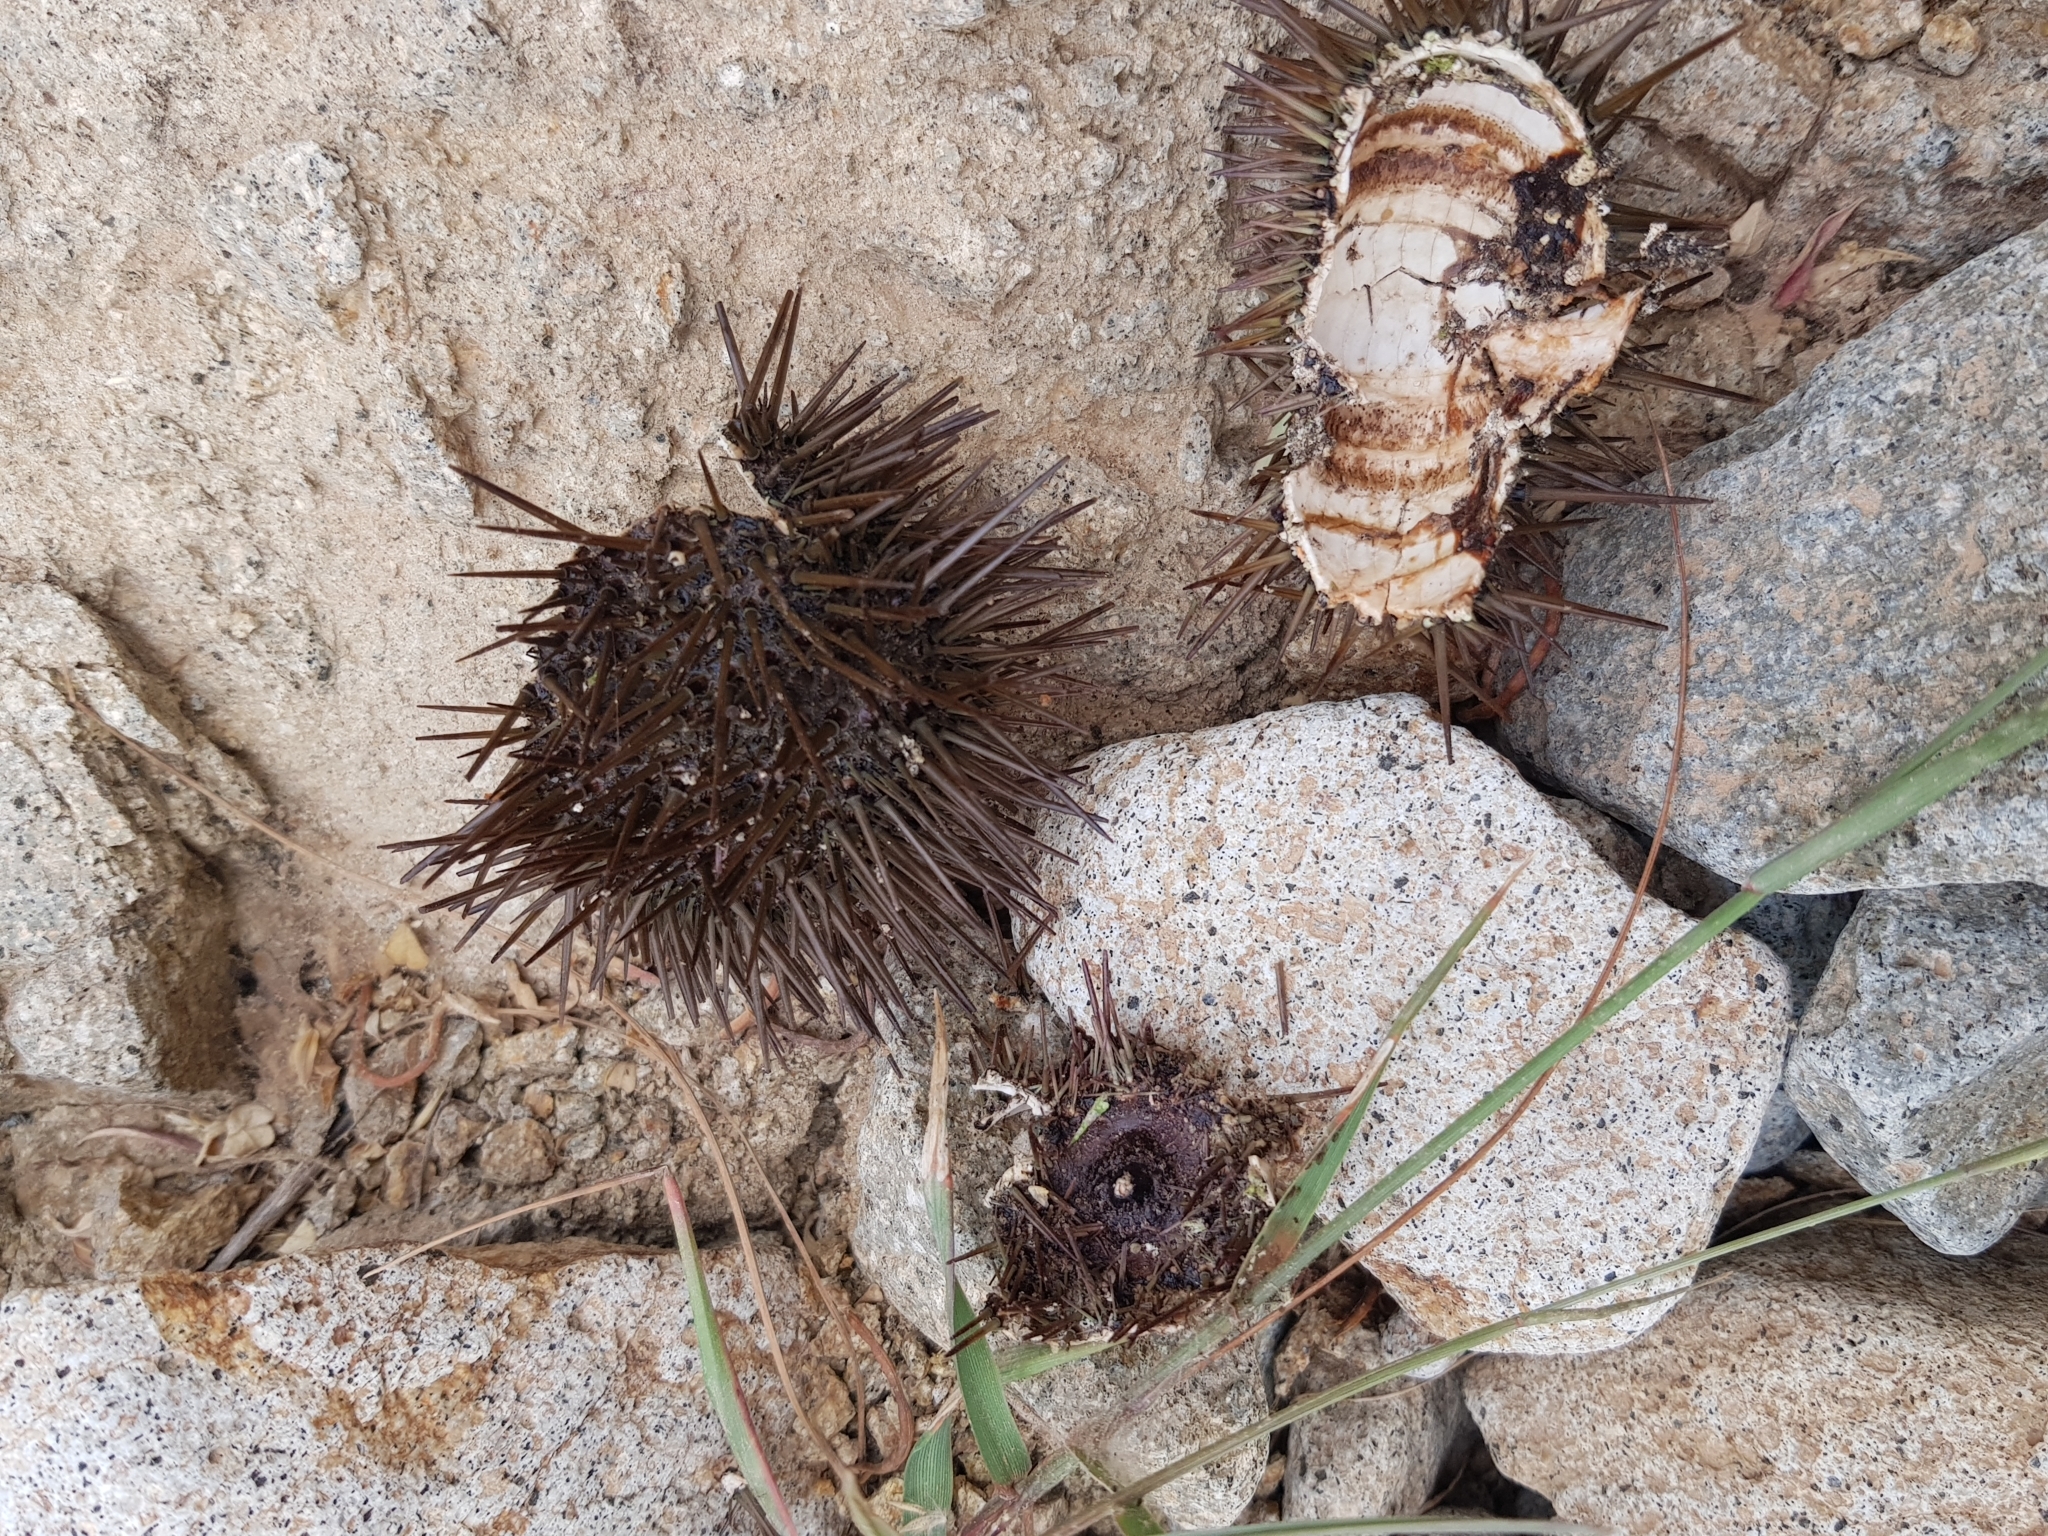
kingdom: Animalia
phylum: Echinodermata
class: Echinoidea
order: Camarodonta
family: Parechinidae
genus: Paracentrotus
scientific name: Paracentrotus lividus
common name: Purple sea urchin
